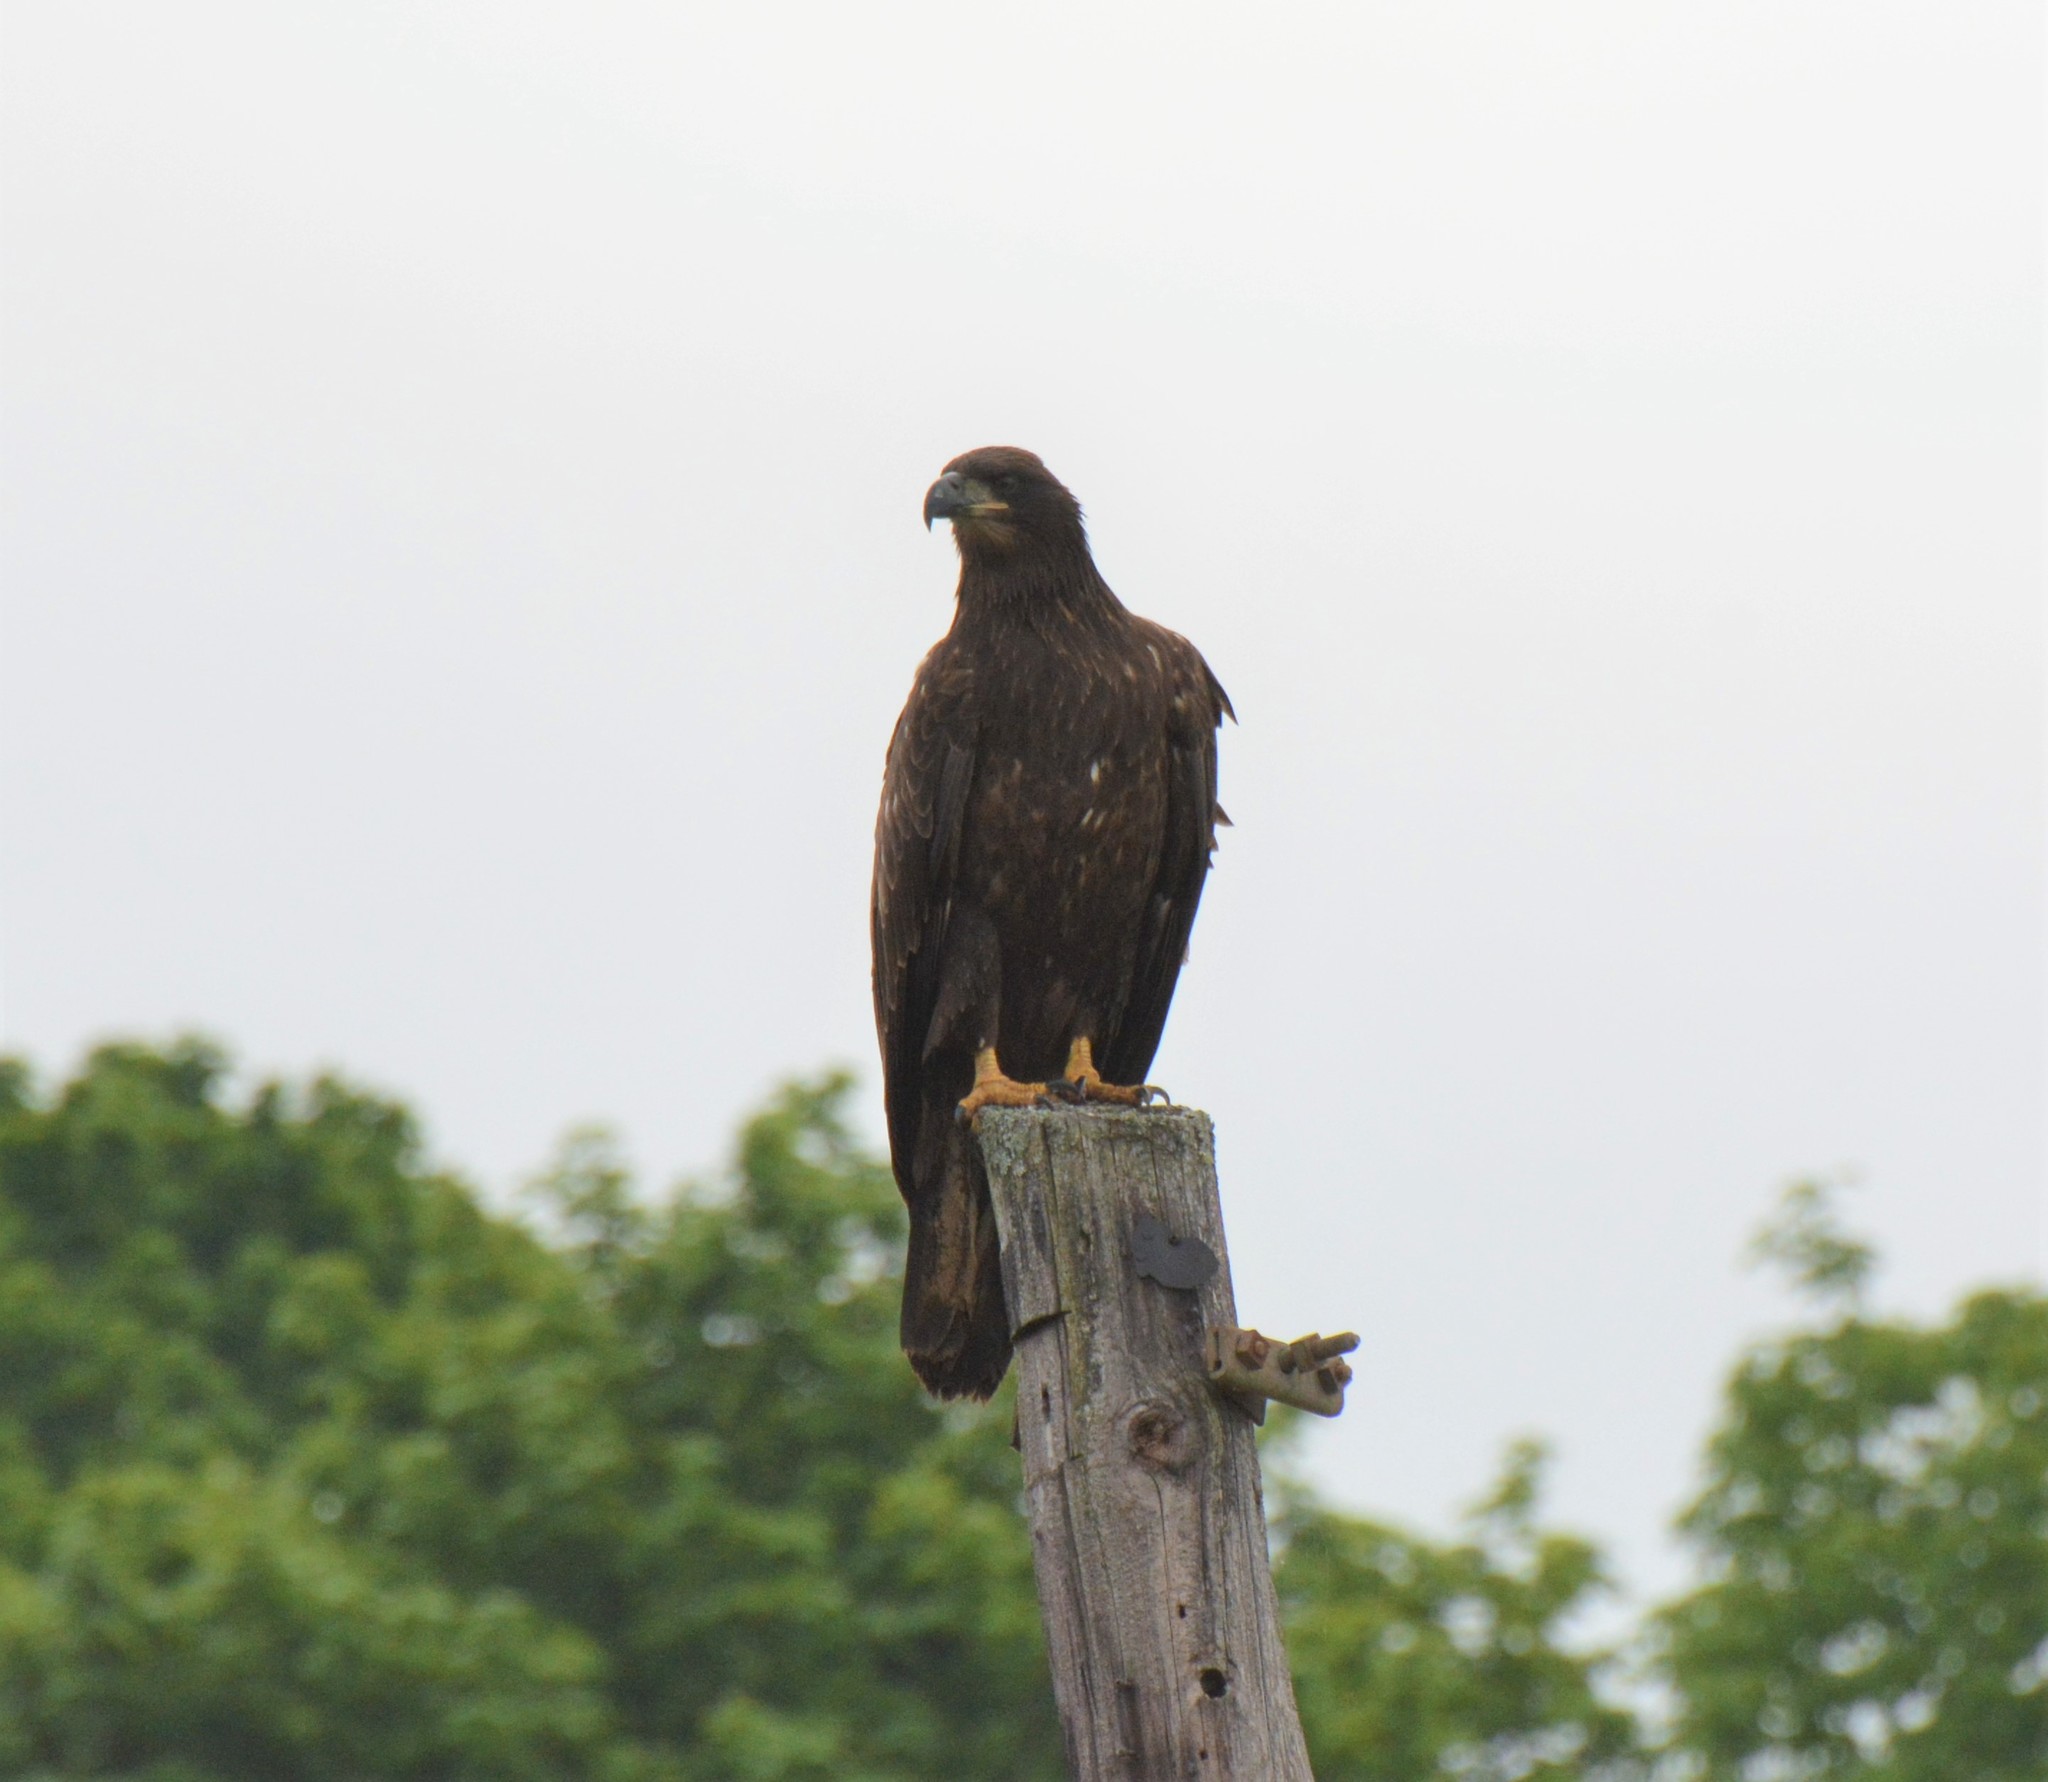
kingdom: Animalia
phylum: Chordata
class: Aves
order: Accipitriformes
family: Accipitridae
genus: Haliaeetus
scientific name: Haliaeetus leucocephalus
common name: Bald eagle
